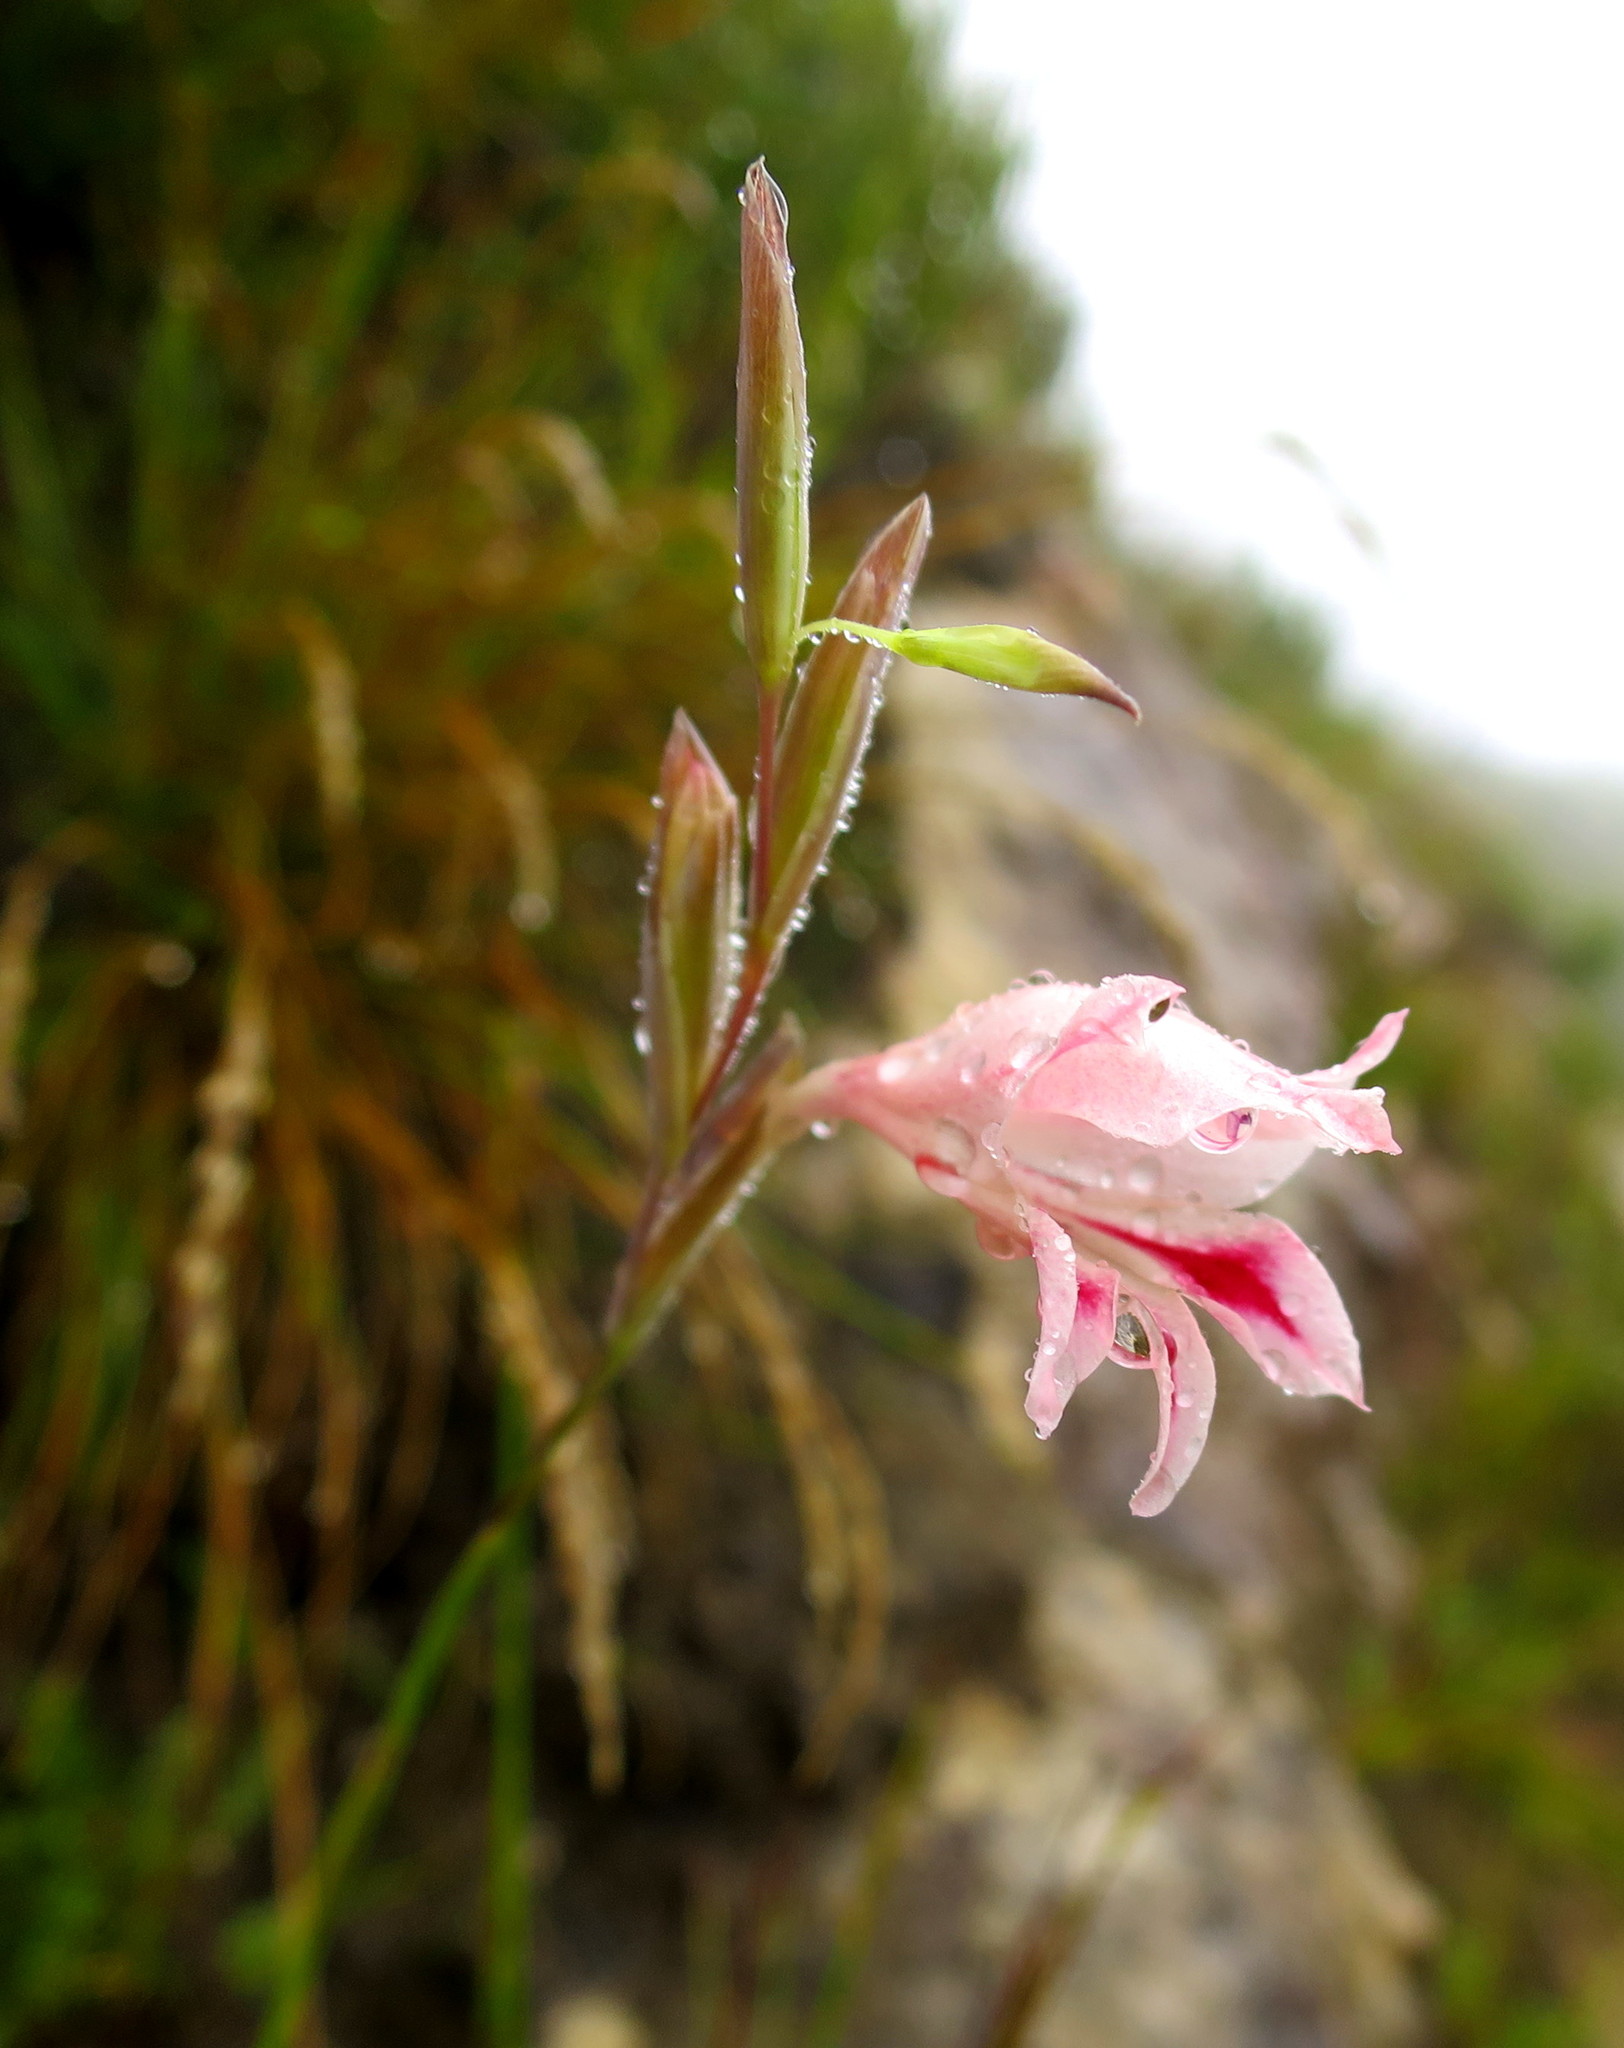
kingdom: Plantae
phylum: Tracheophyta
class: Liliopsida
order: Asparagales
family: Iridaceae
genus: Gladiolus
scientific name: Gladiolus nigromontanus
